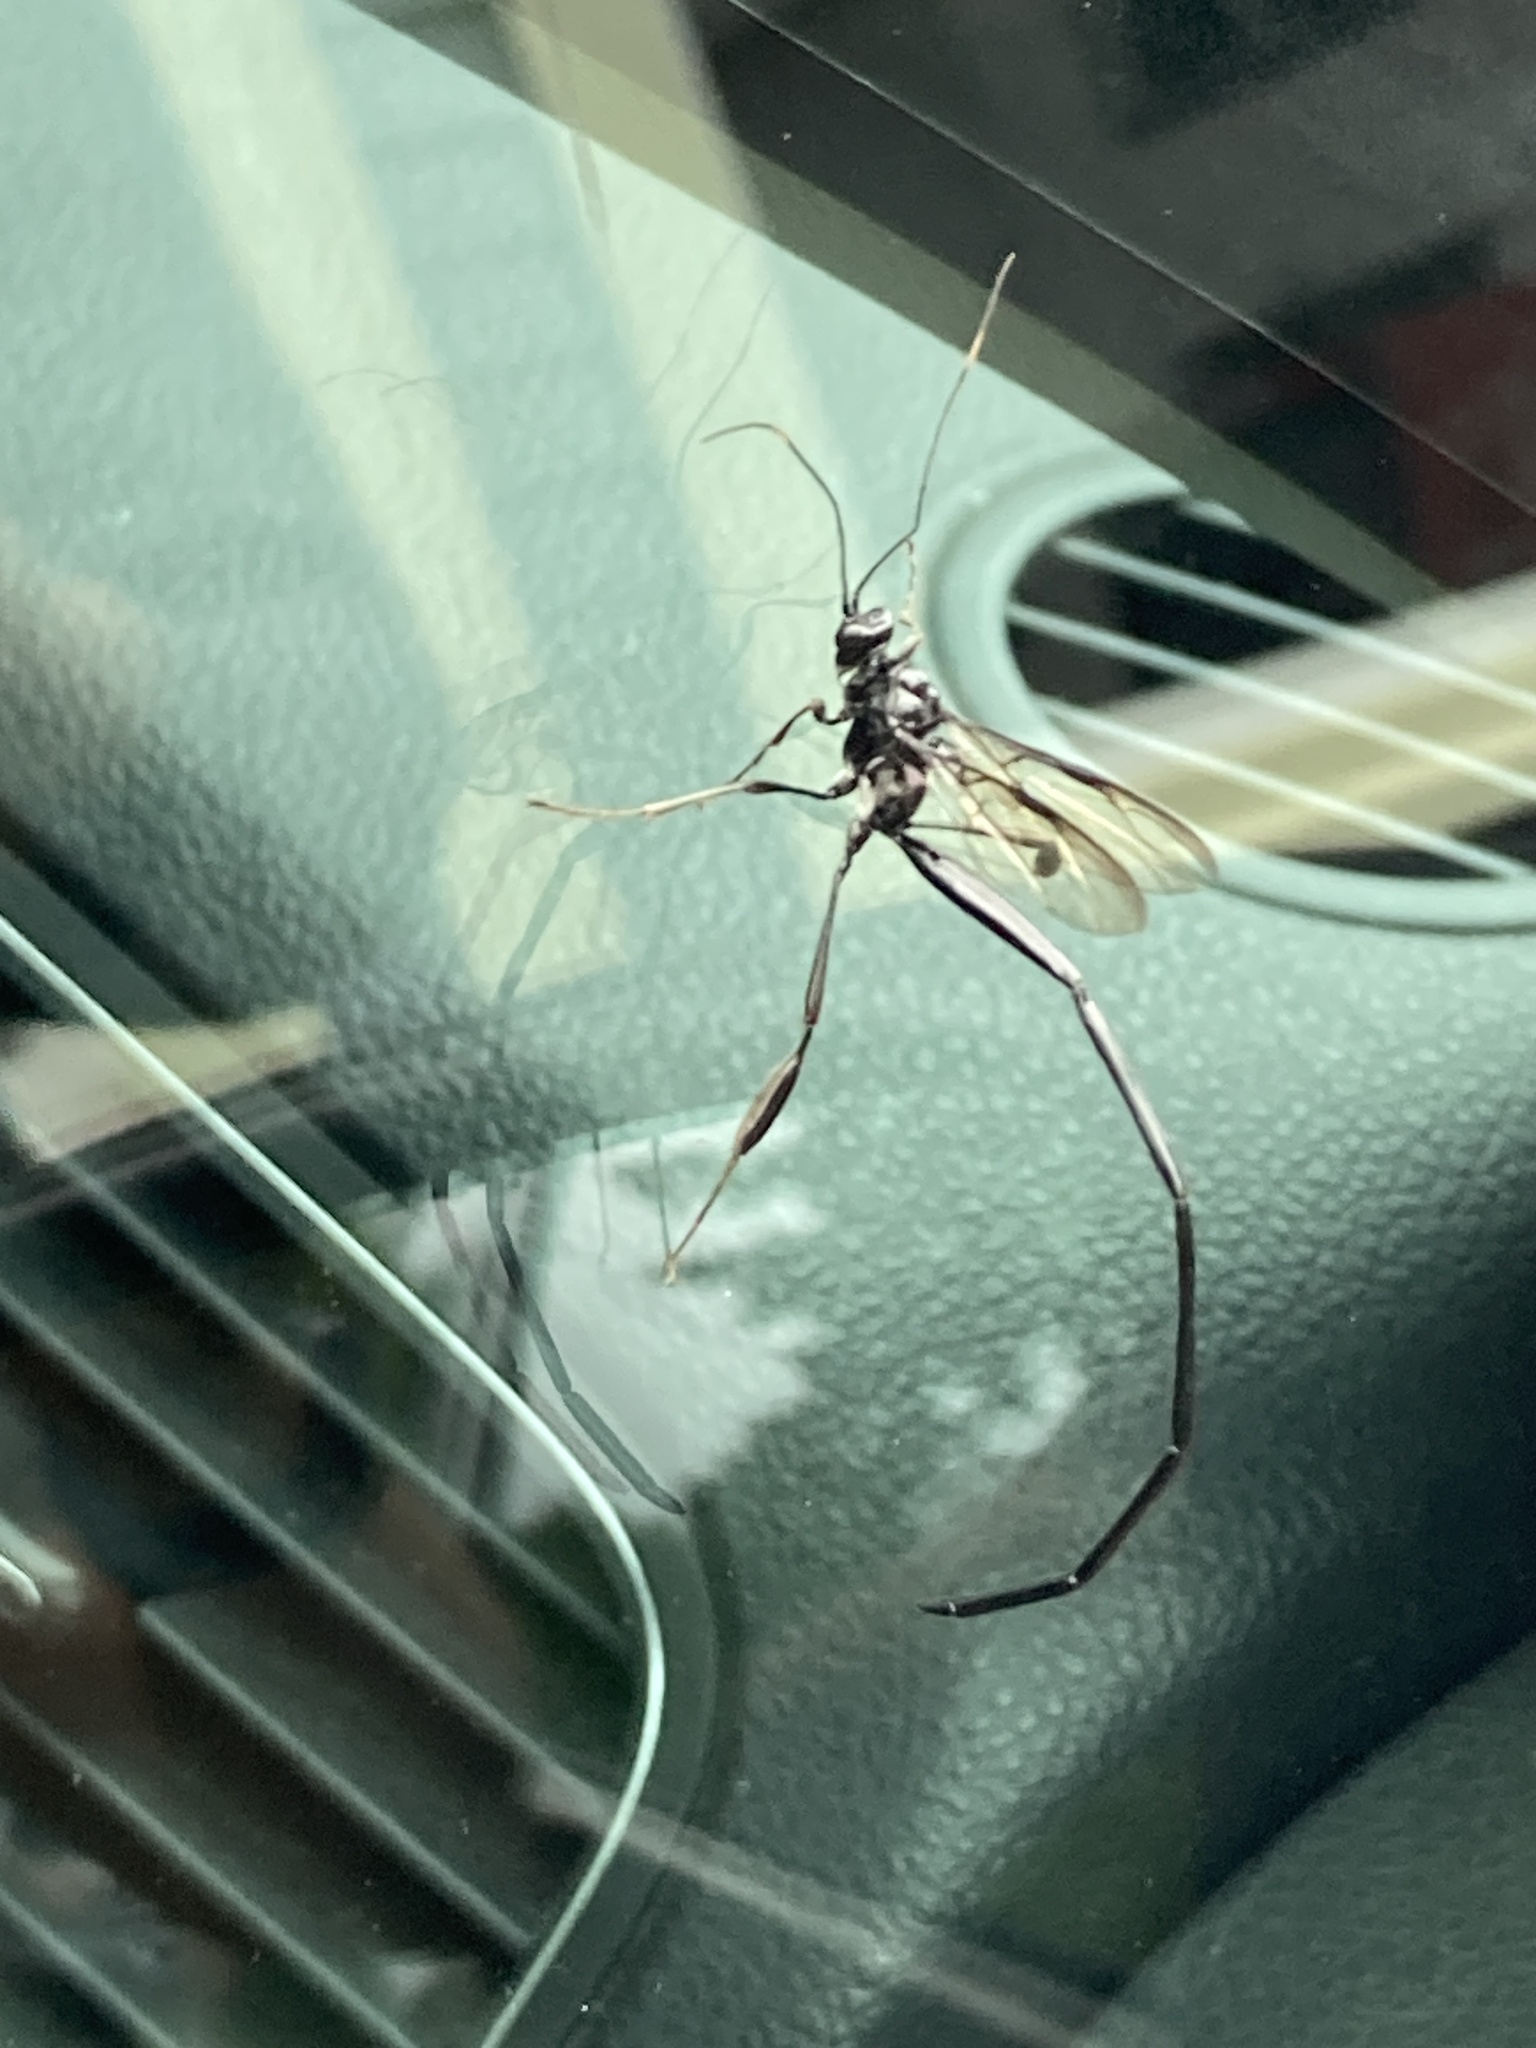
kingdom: Animalia
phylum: Arthropoda
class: Insecta
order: Hymenoptera
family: Pelecinidae
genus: Pelecinus
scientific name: Pelecinus polyturator
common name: American pelecinid wasp
